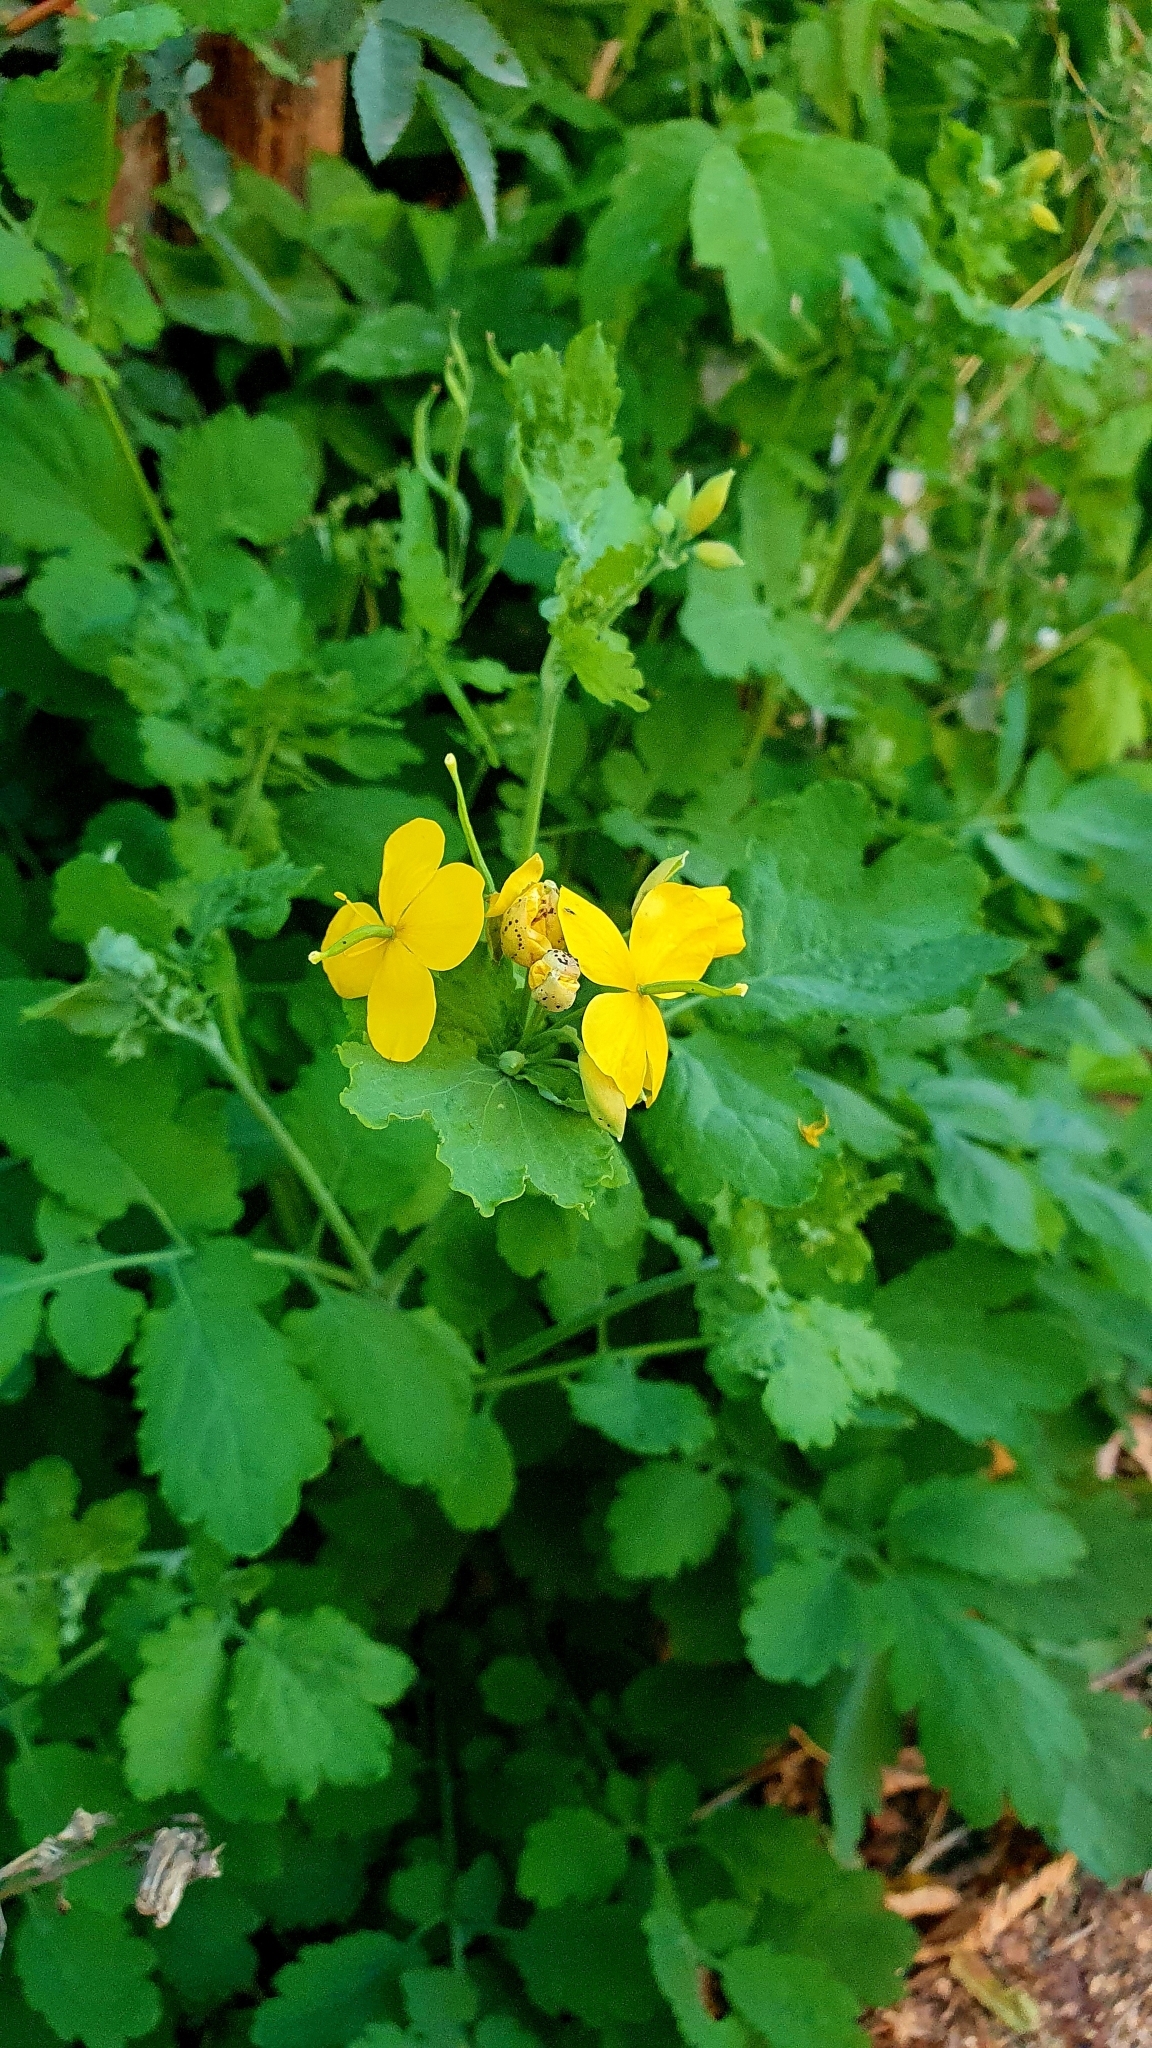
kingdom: Plantae
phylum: Tracheophyta
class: Magnoliopsida
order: Ranunculales
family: Papaveraceae
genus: Chelidonium
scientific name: Chelidonium majus
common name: Greater celandine
